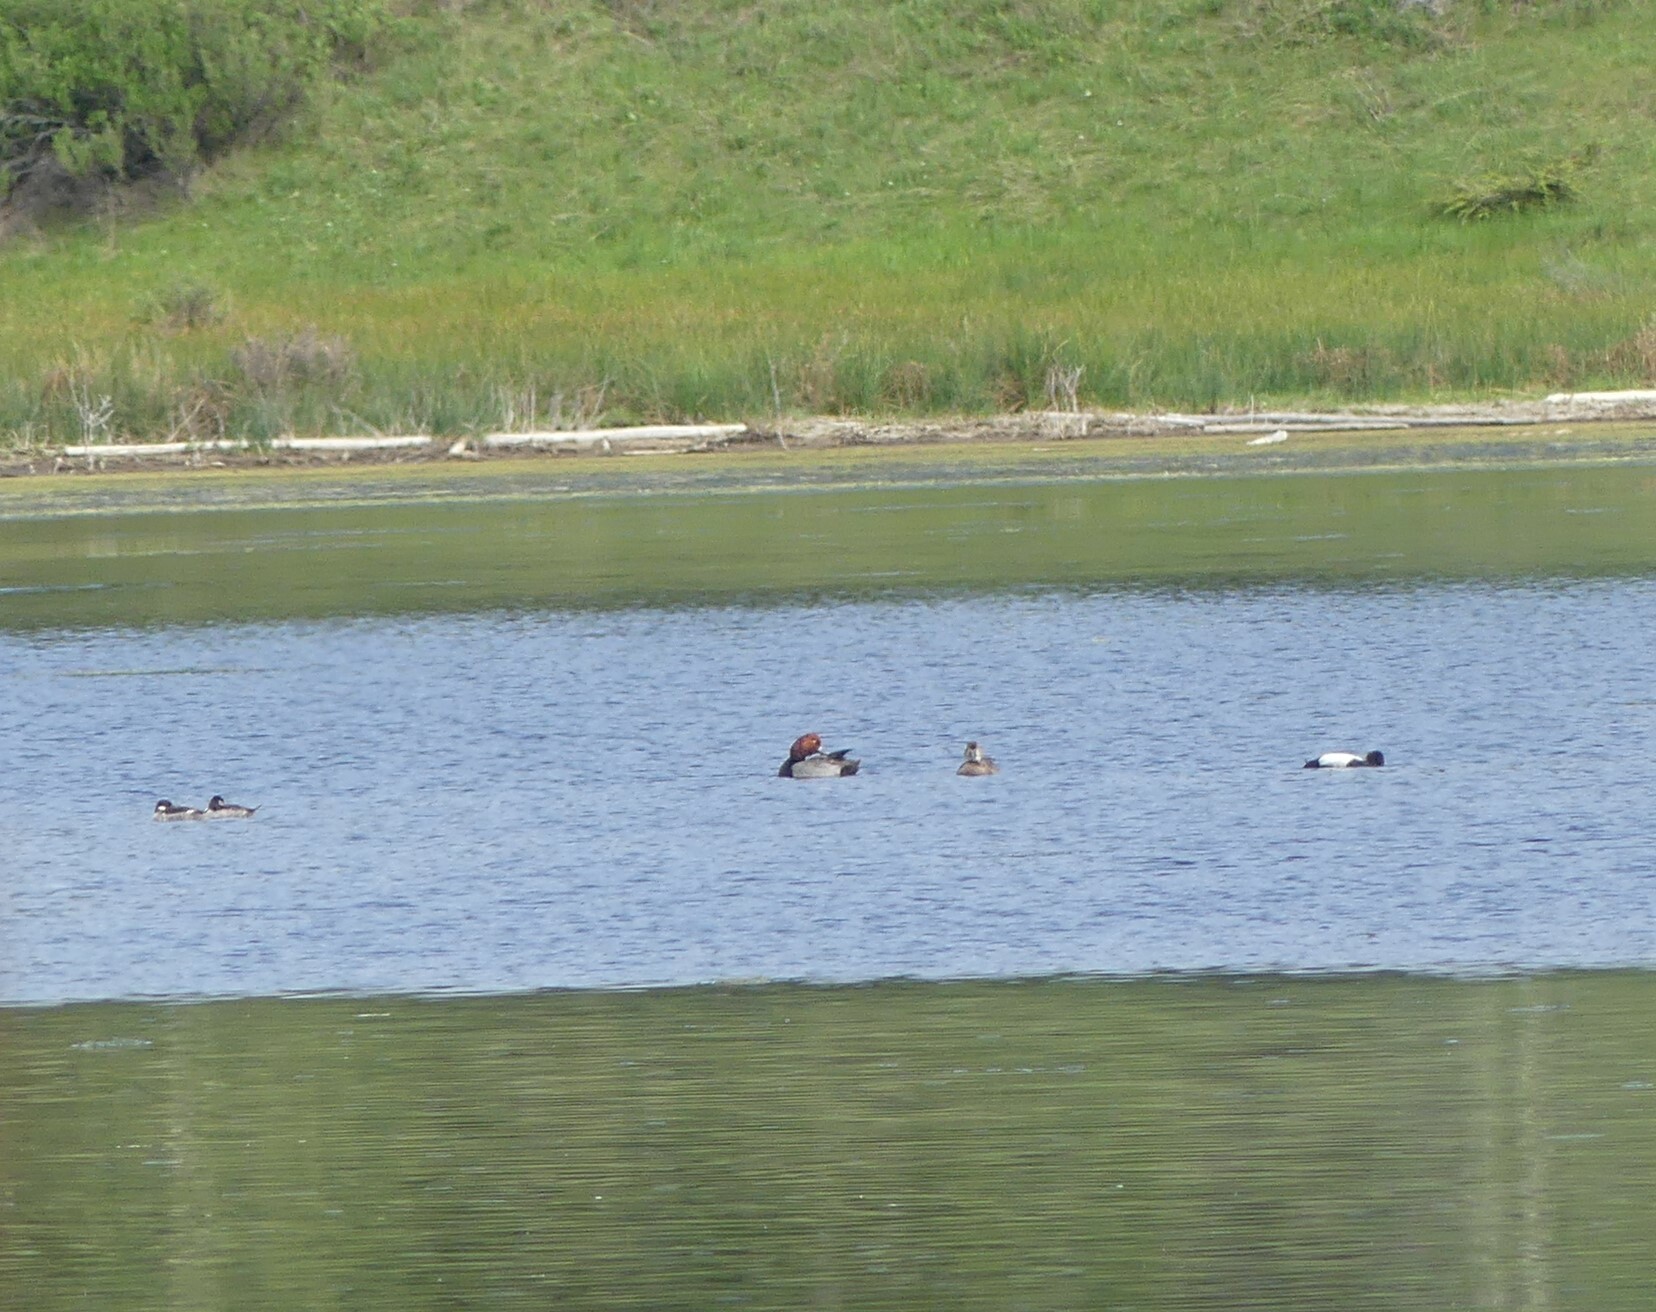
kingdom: Animalia
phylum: Chordata
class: Aves
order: Anseriformes
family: Anatidae
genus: Aythya
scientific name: Aythya americana
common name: Redhead
